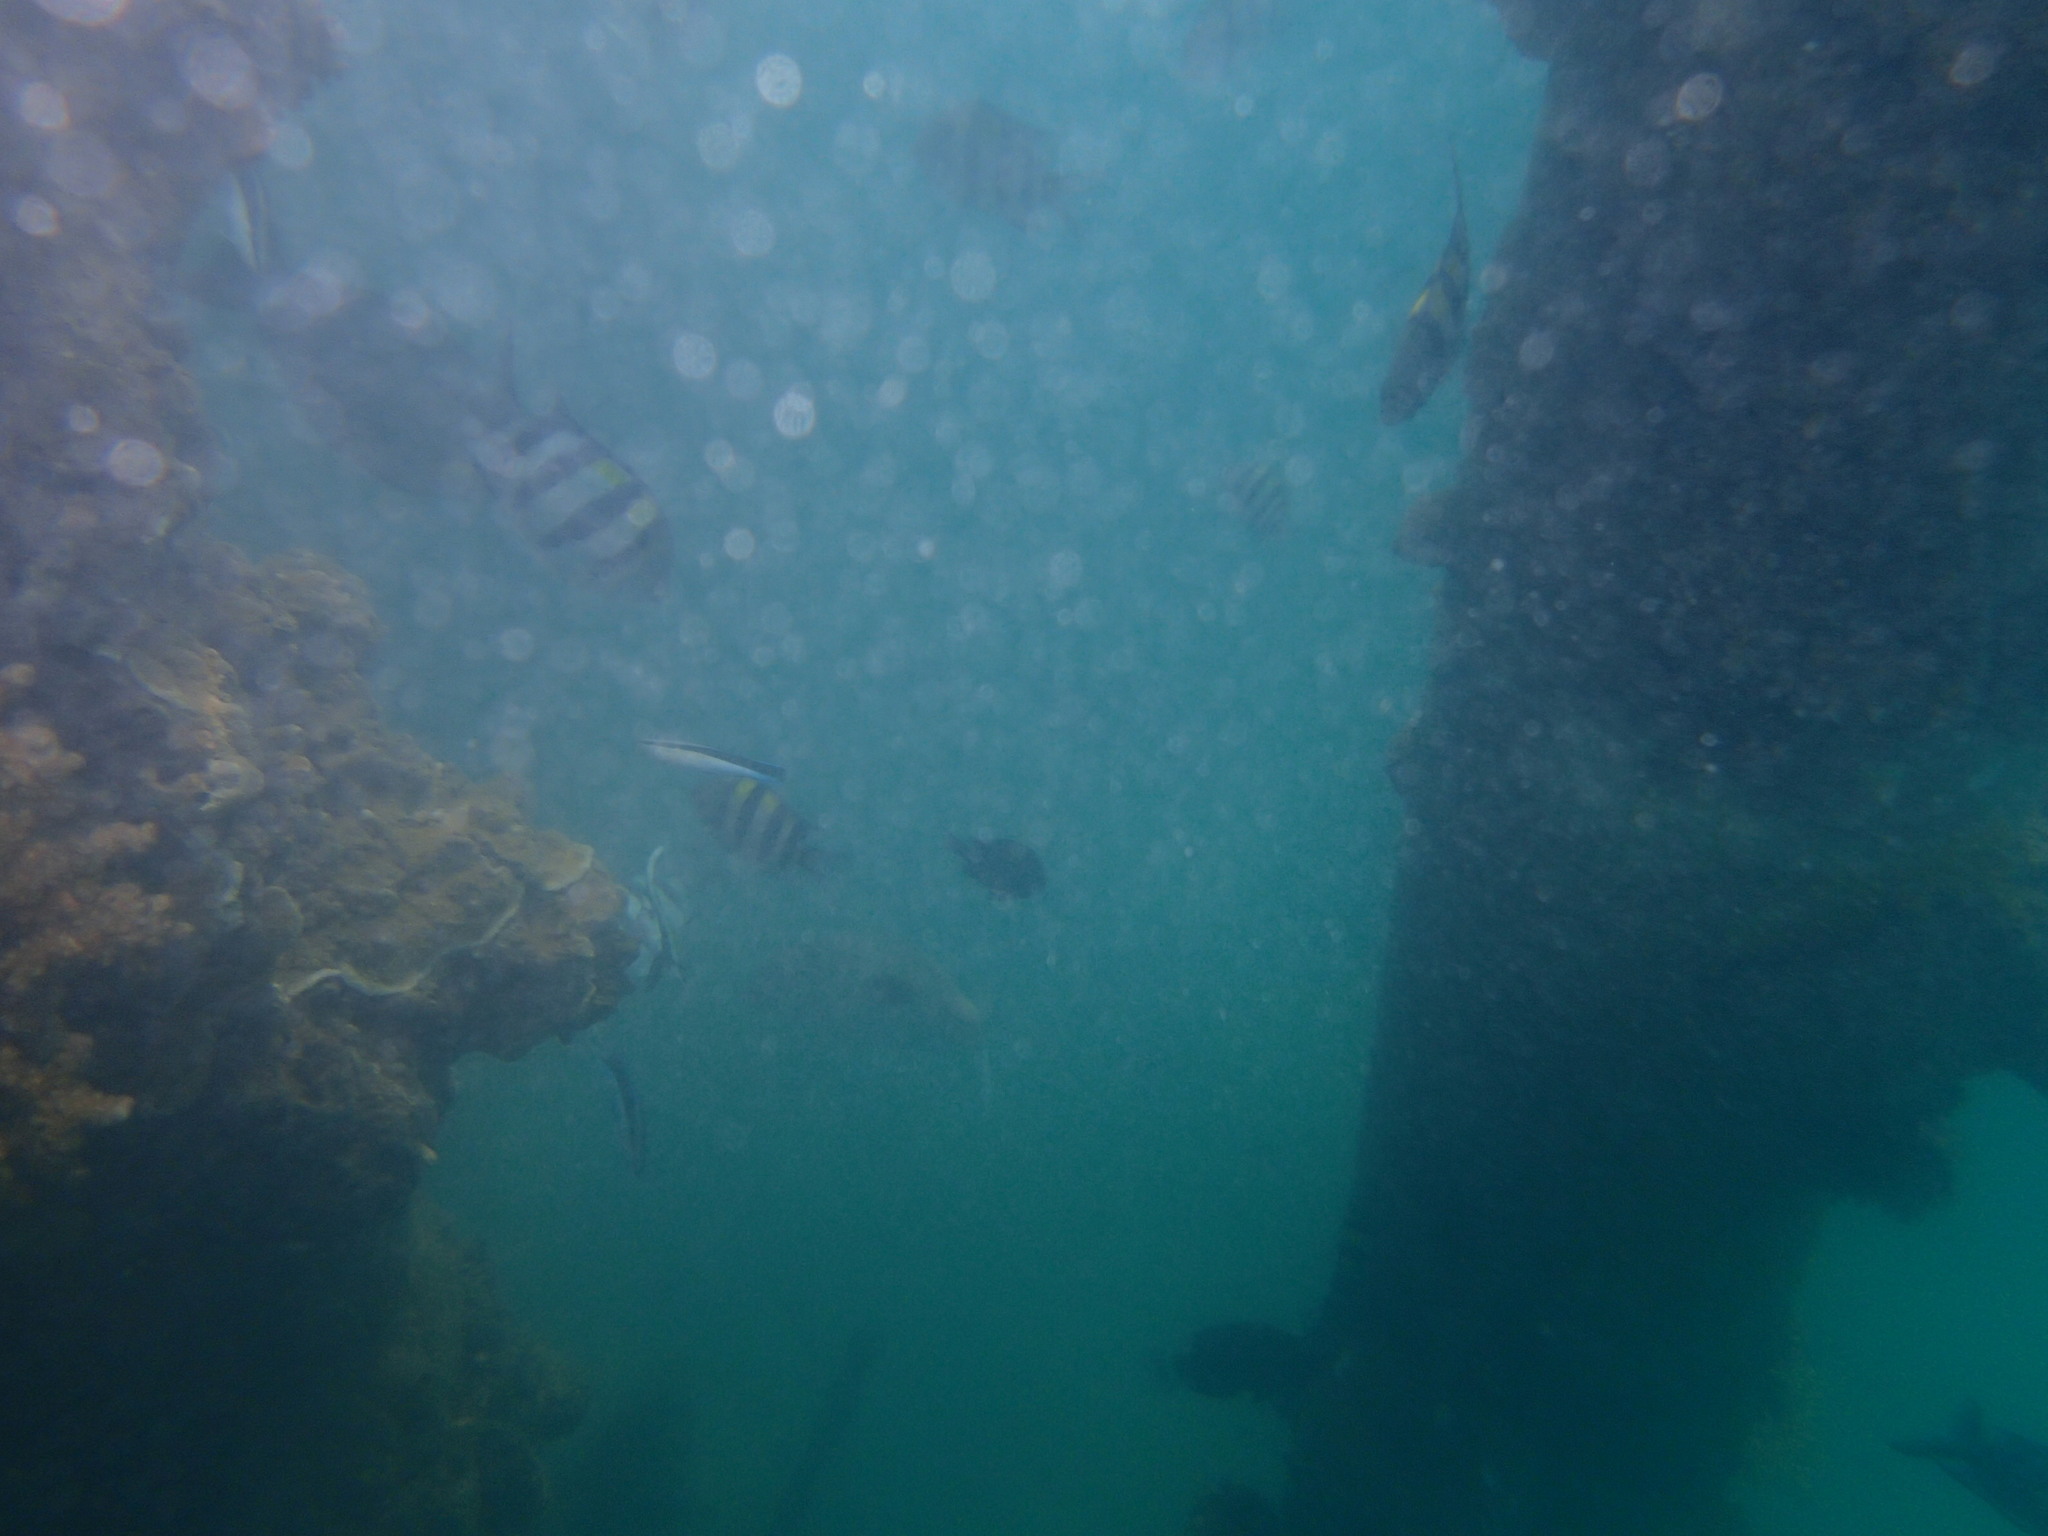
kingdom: Animalia
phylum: Chordata
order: Perciformes
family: Labridae
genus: Labroides
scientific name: Labroides dimidiatus
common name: Blue diesel wrasse
